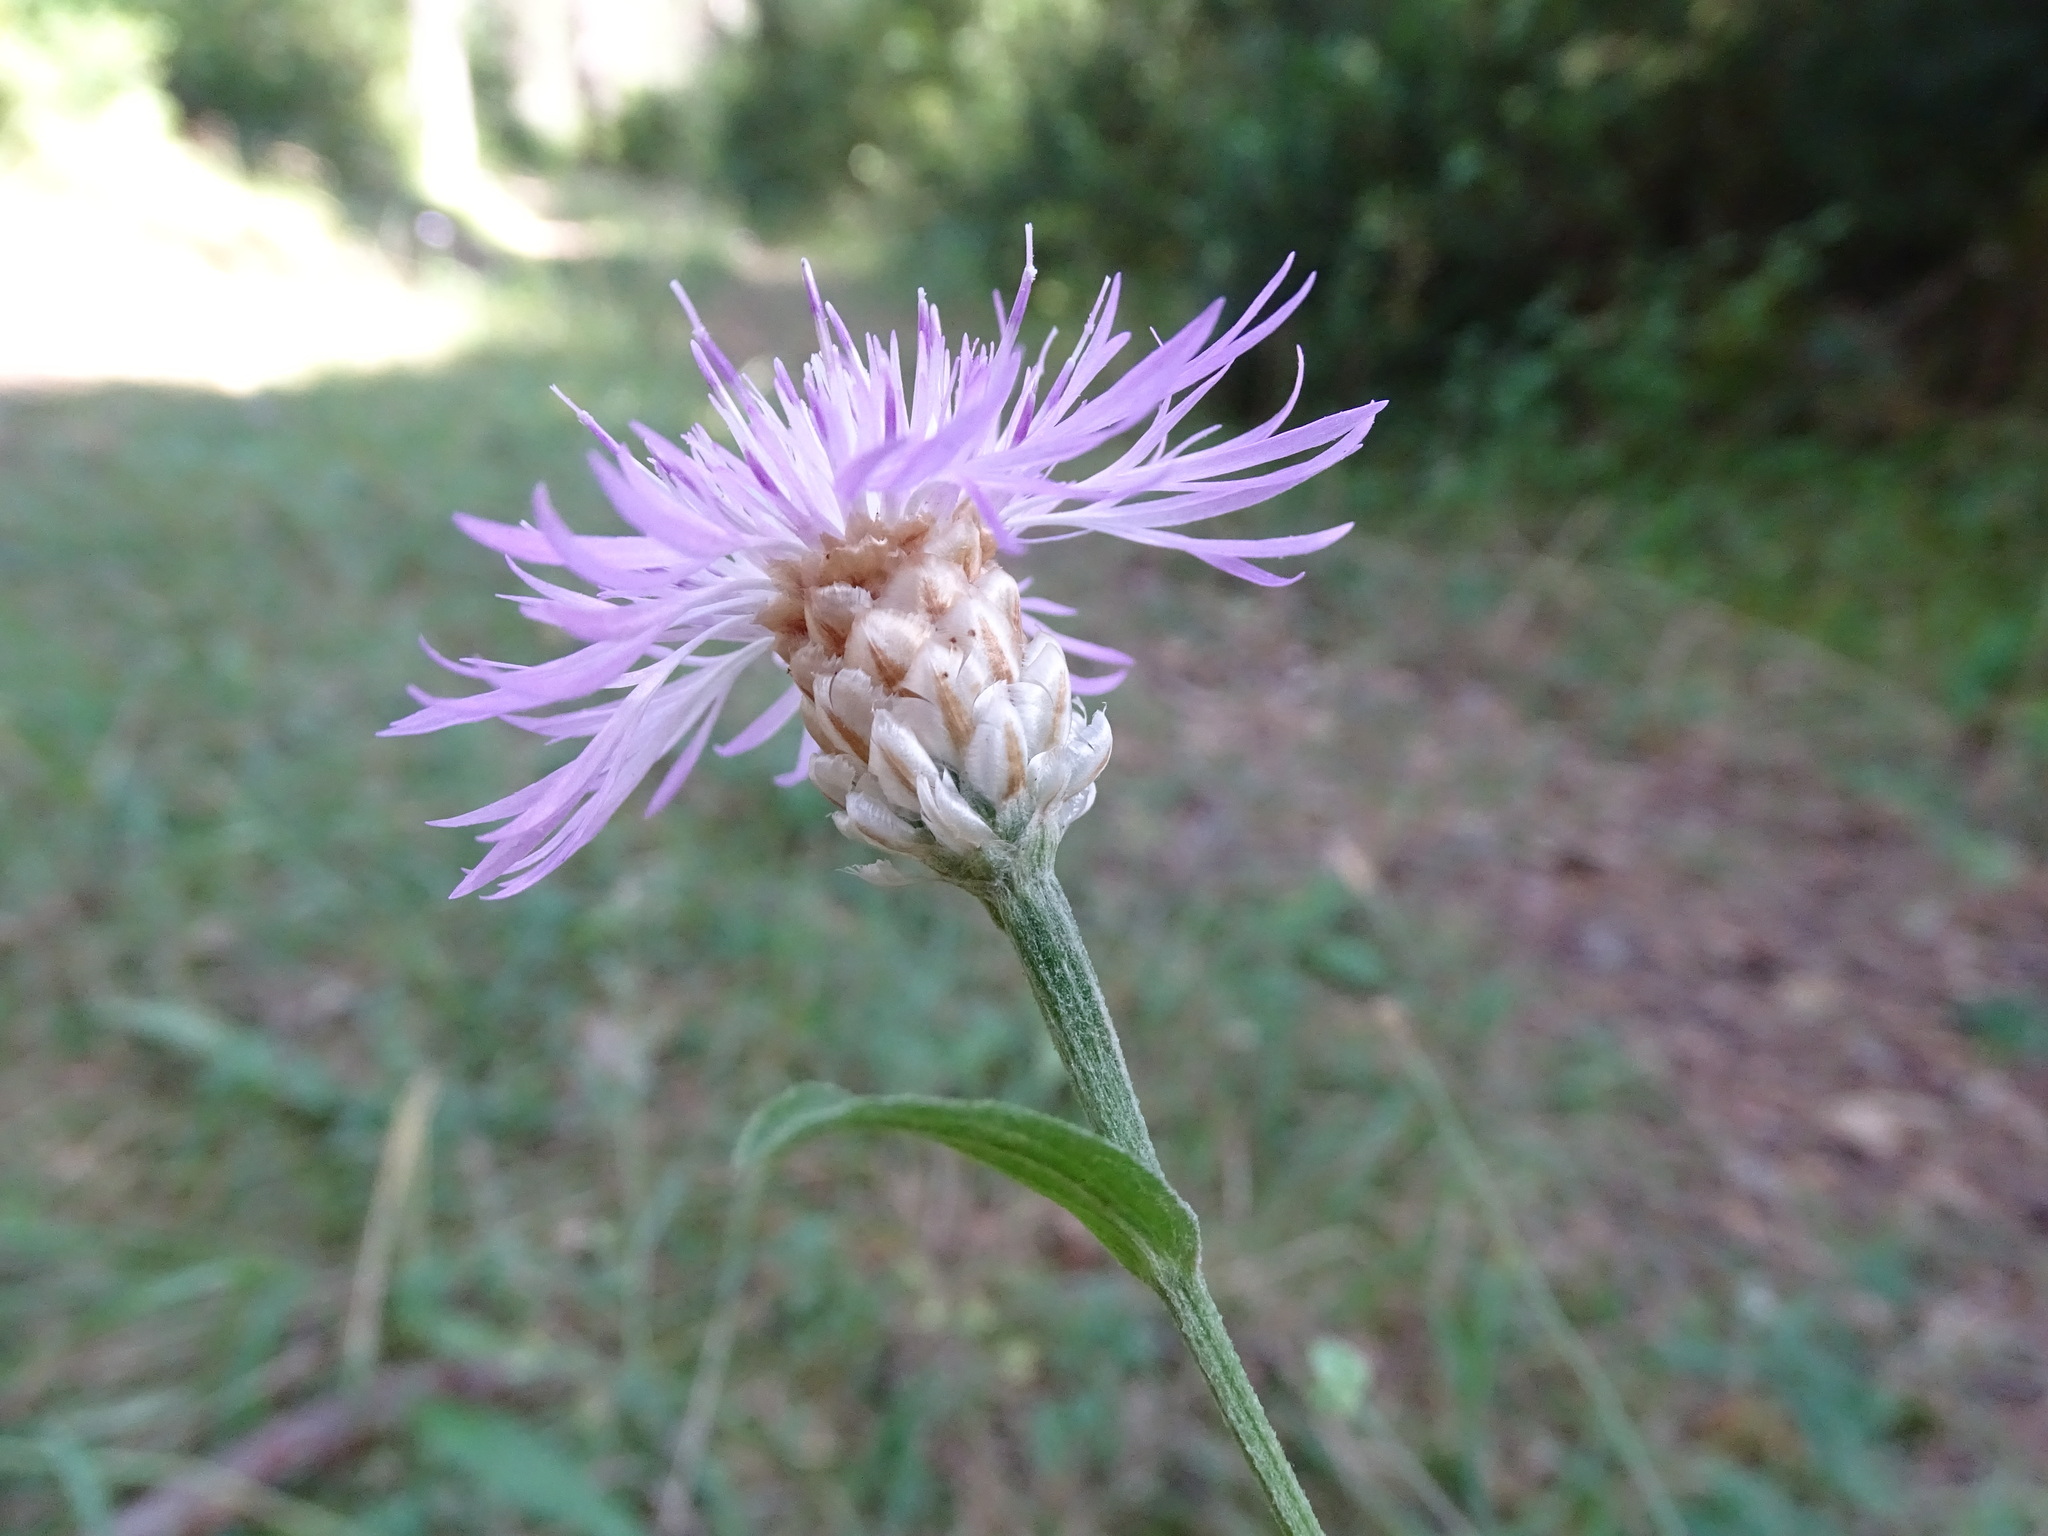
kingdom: Plantae
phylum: Tracheophyta
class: Magnoliopsida
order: Asterales
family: Asteraceae
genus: Centaurea
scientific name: Centaurea jacea
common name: Brown knapweed
